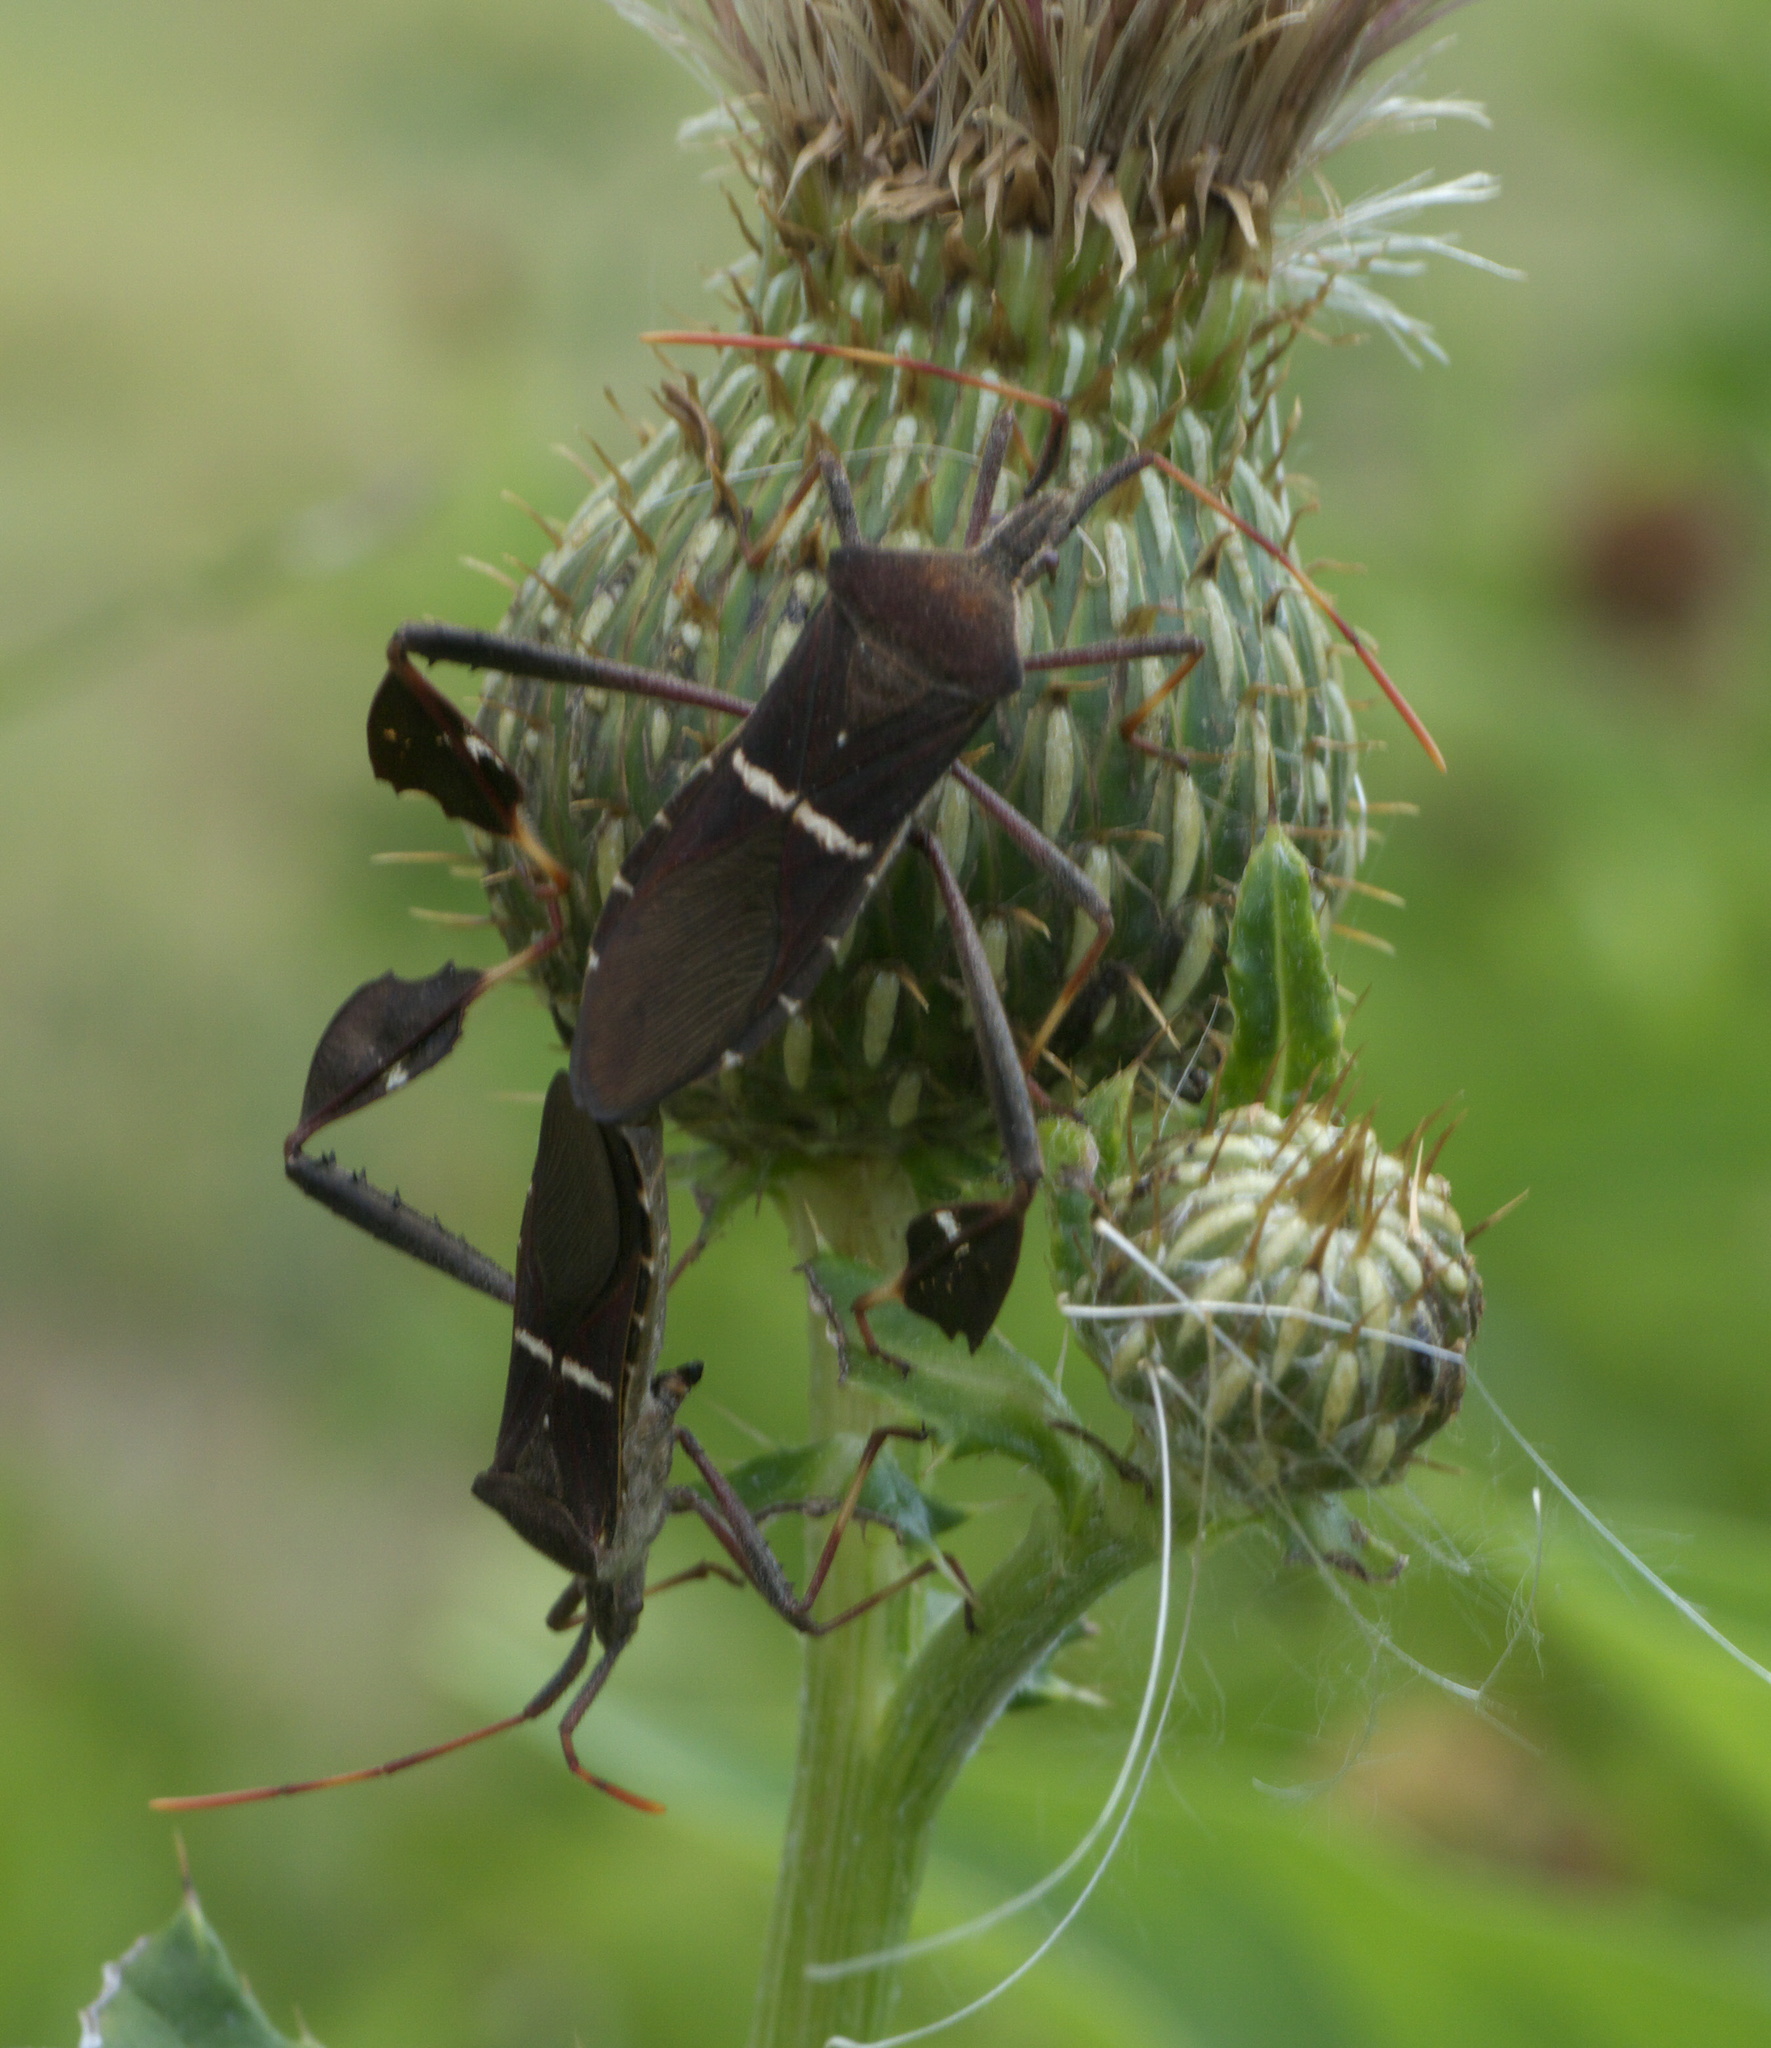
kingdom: Animalia
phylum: Arthropoda
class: Insecta
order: Hemiptera
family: Coreidae
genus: Leptoglossus
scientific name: Leptoglossus phyllopus
